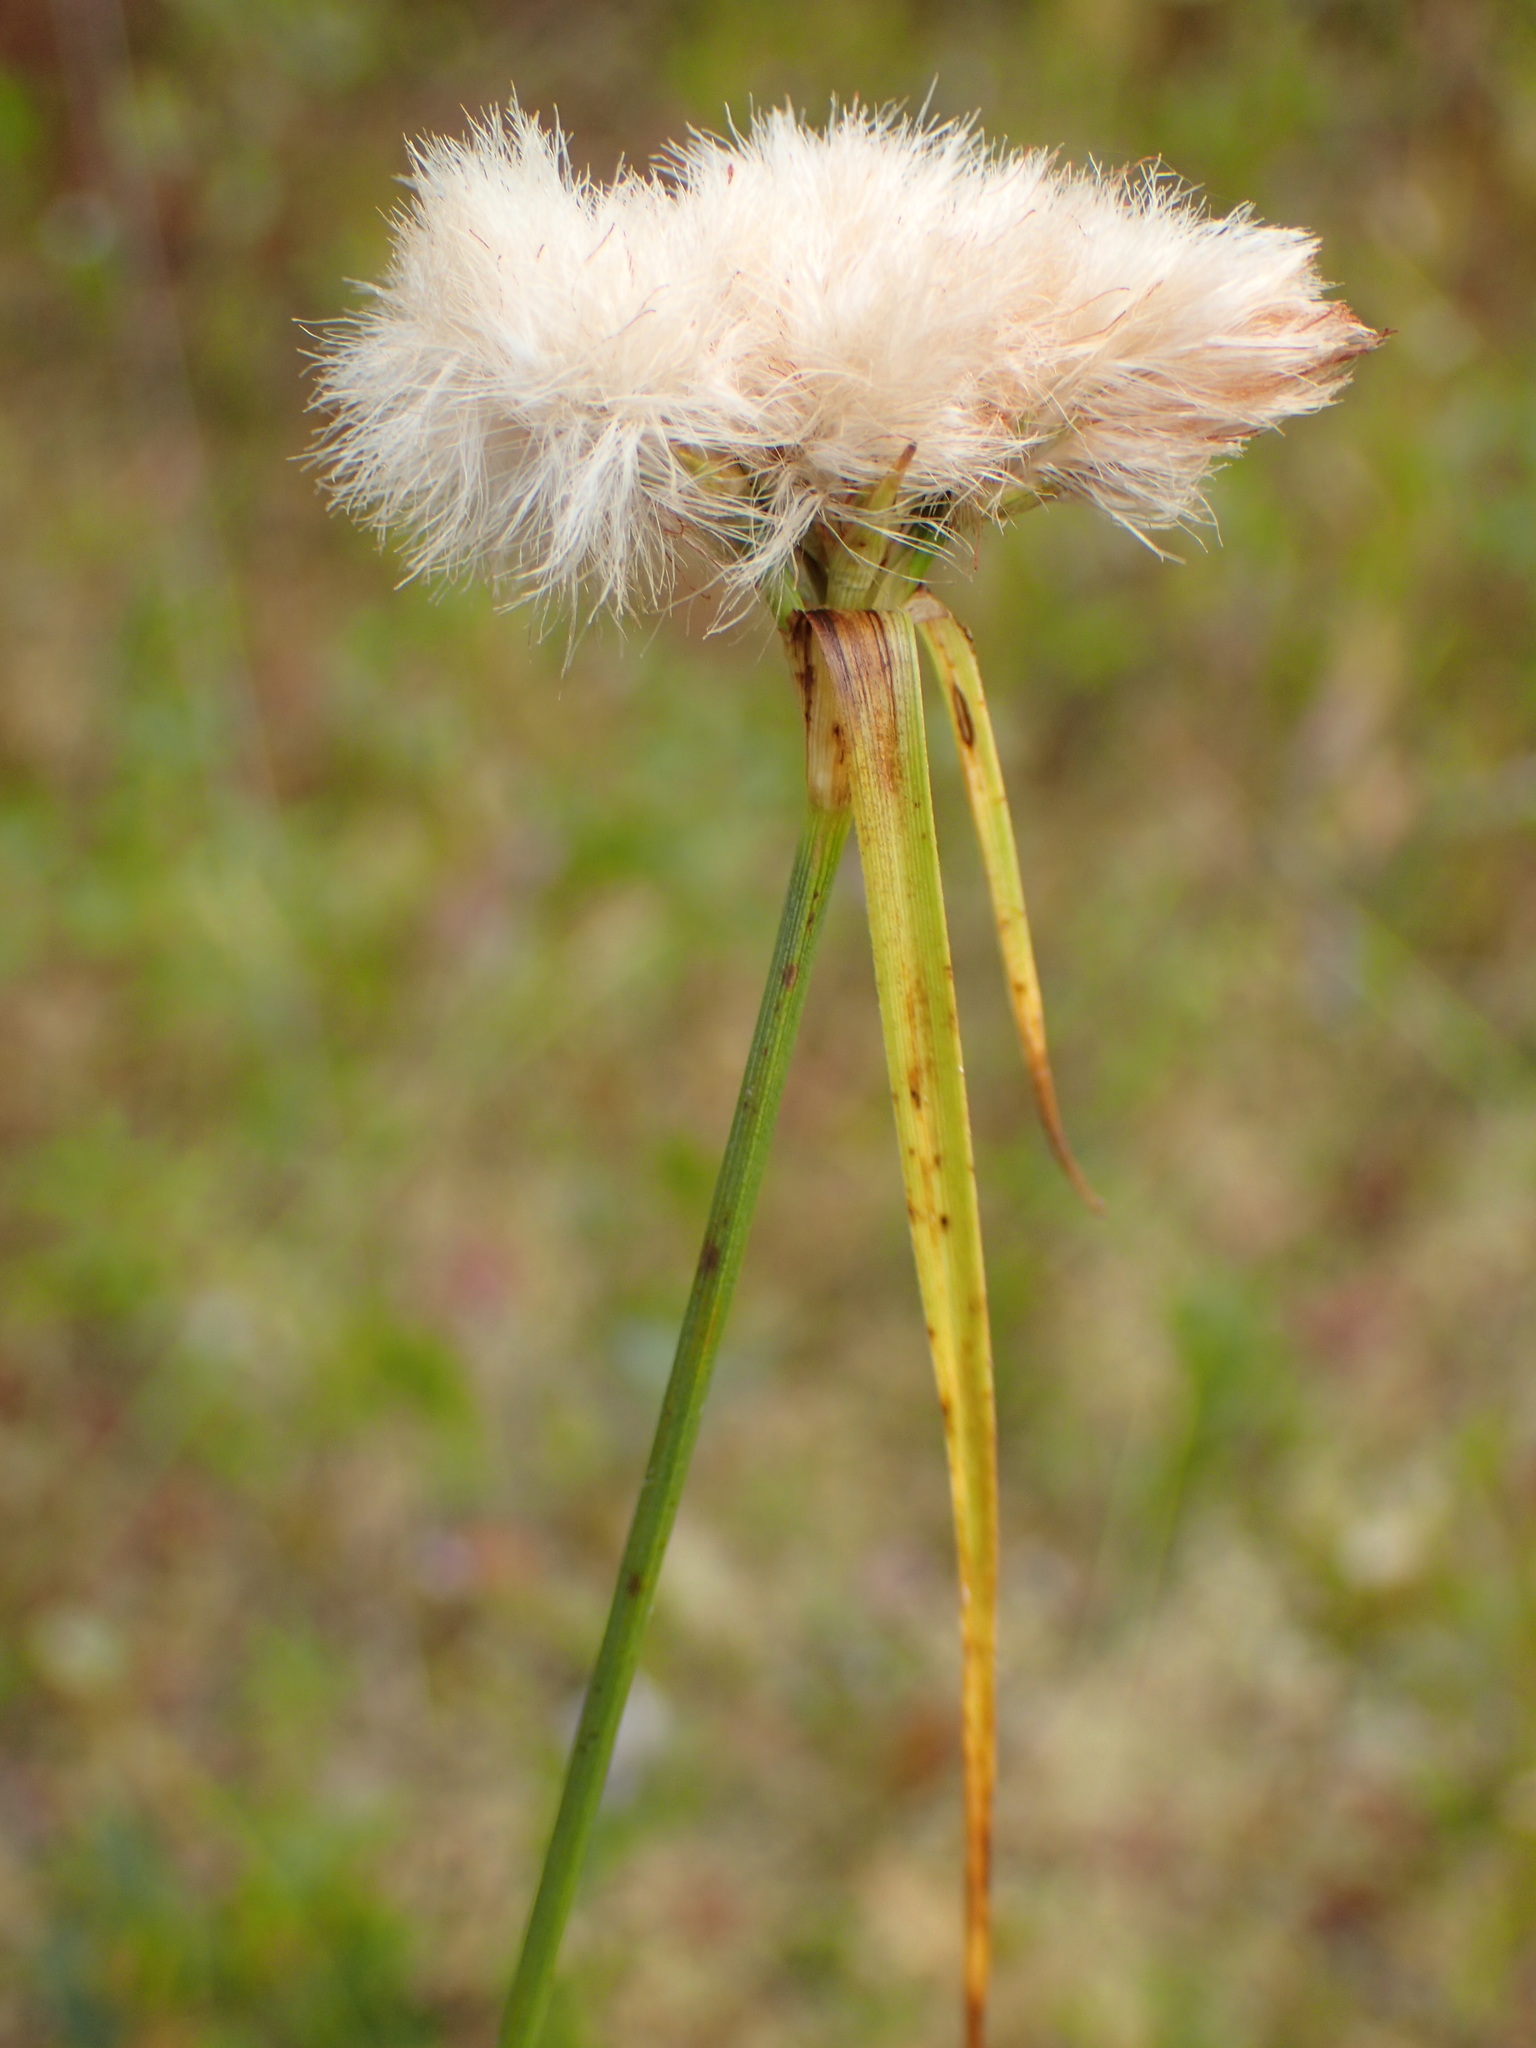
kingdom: Plantae
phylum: Tracheophyta
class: Liliopsida
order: Poales
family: Cyperaceae
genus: Eriophorum
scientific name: Eriophorum virginicum
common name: Tawny cottongrass
